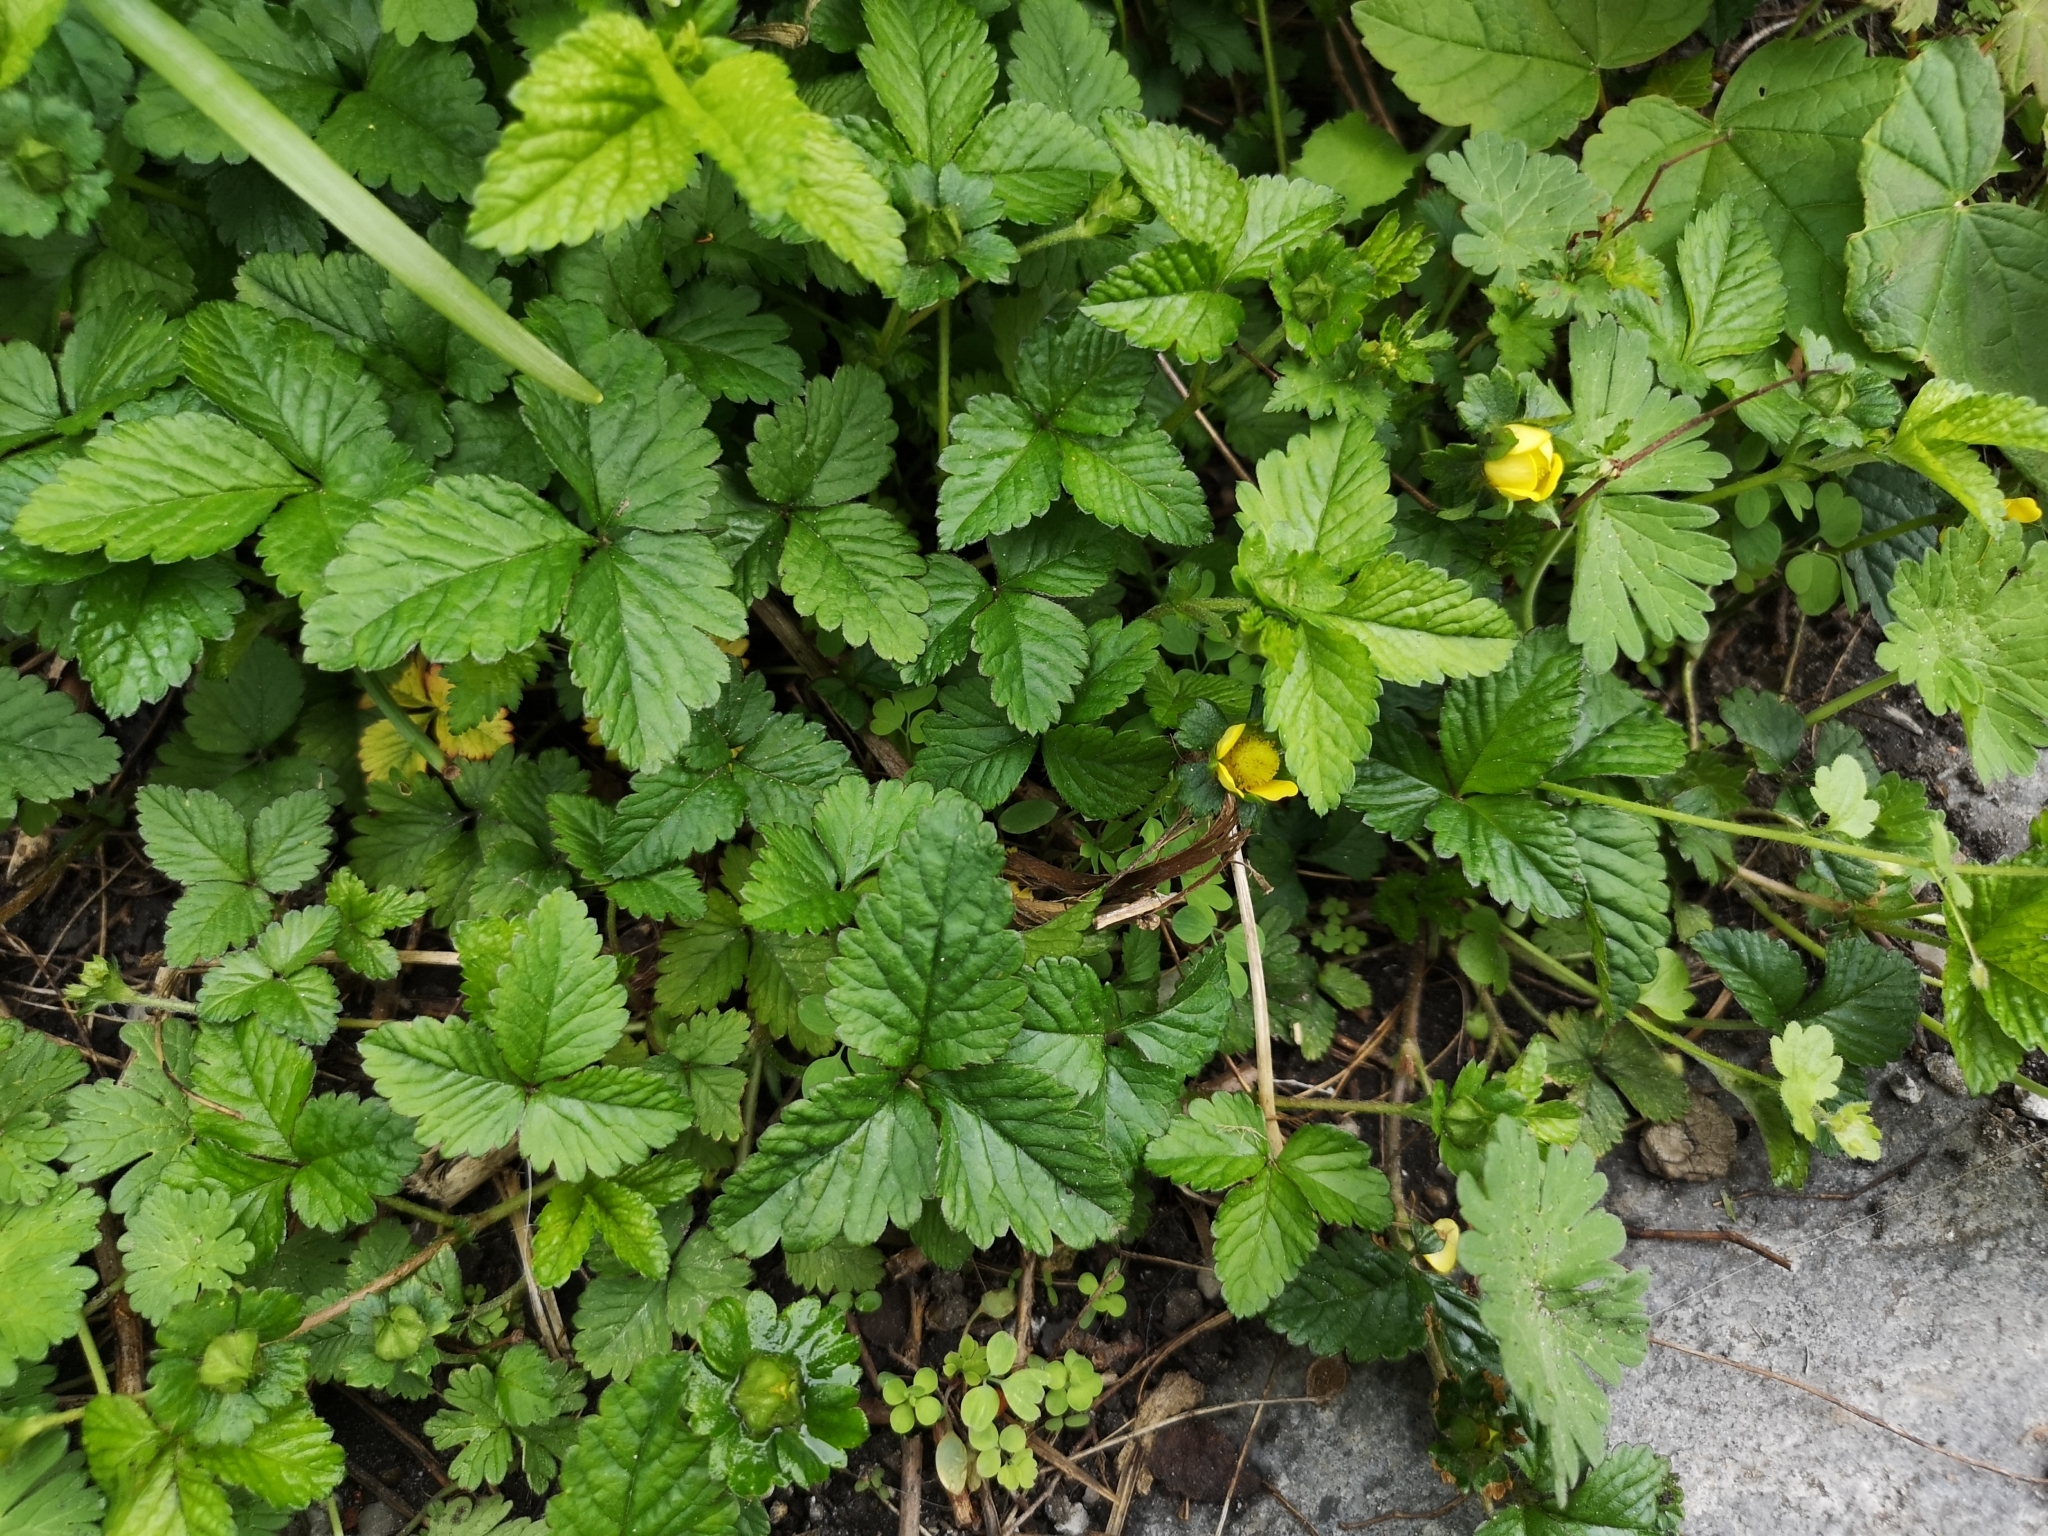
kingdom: Plantae
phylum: Tracheophyta
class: Magnoliopsida
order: Rosales
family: Rosaceae
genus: Potentilla
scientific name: Potentilla indica
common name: Yellow-flowered strawberry
